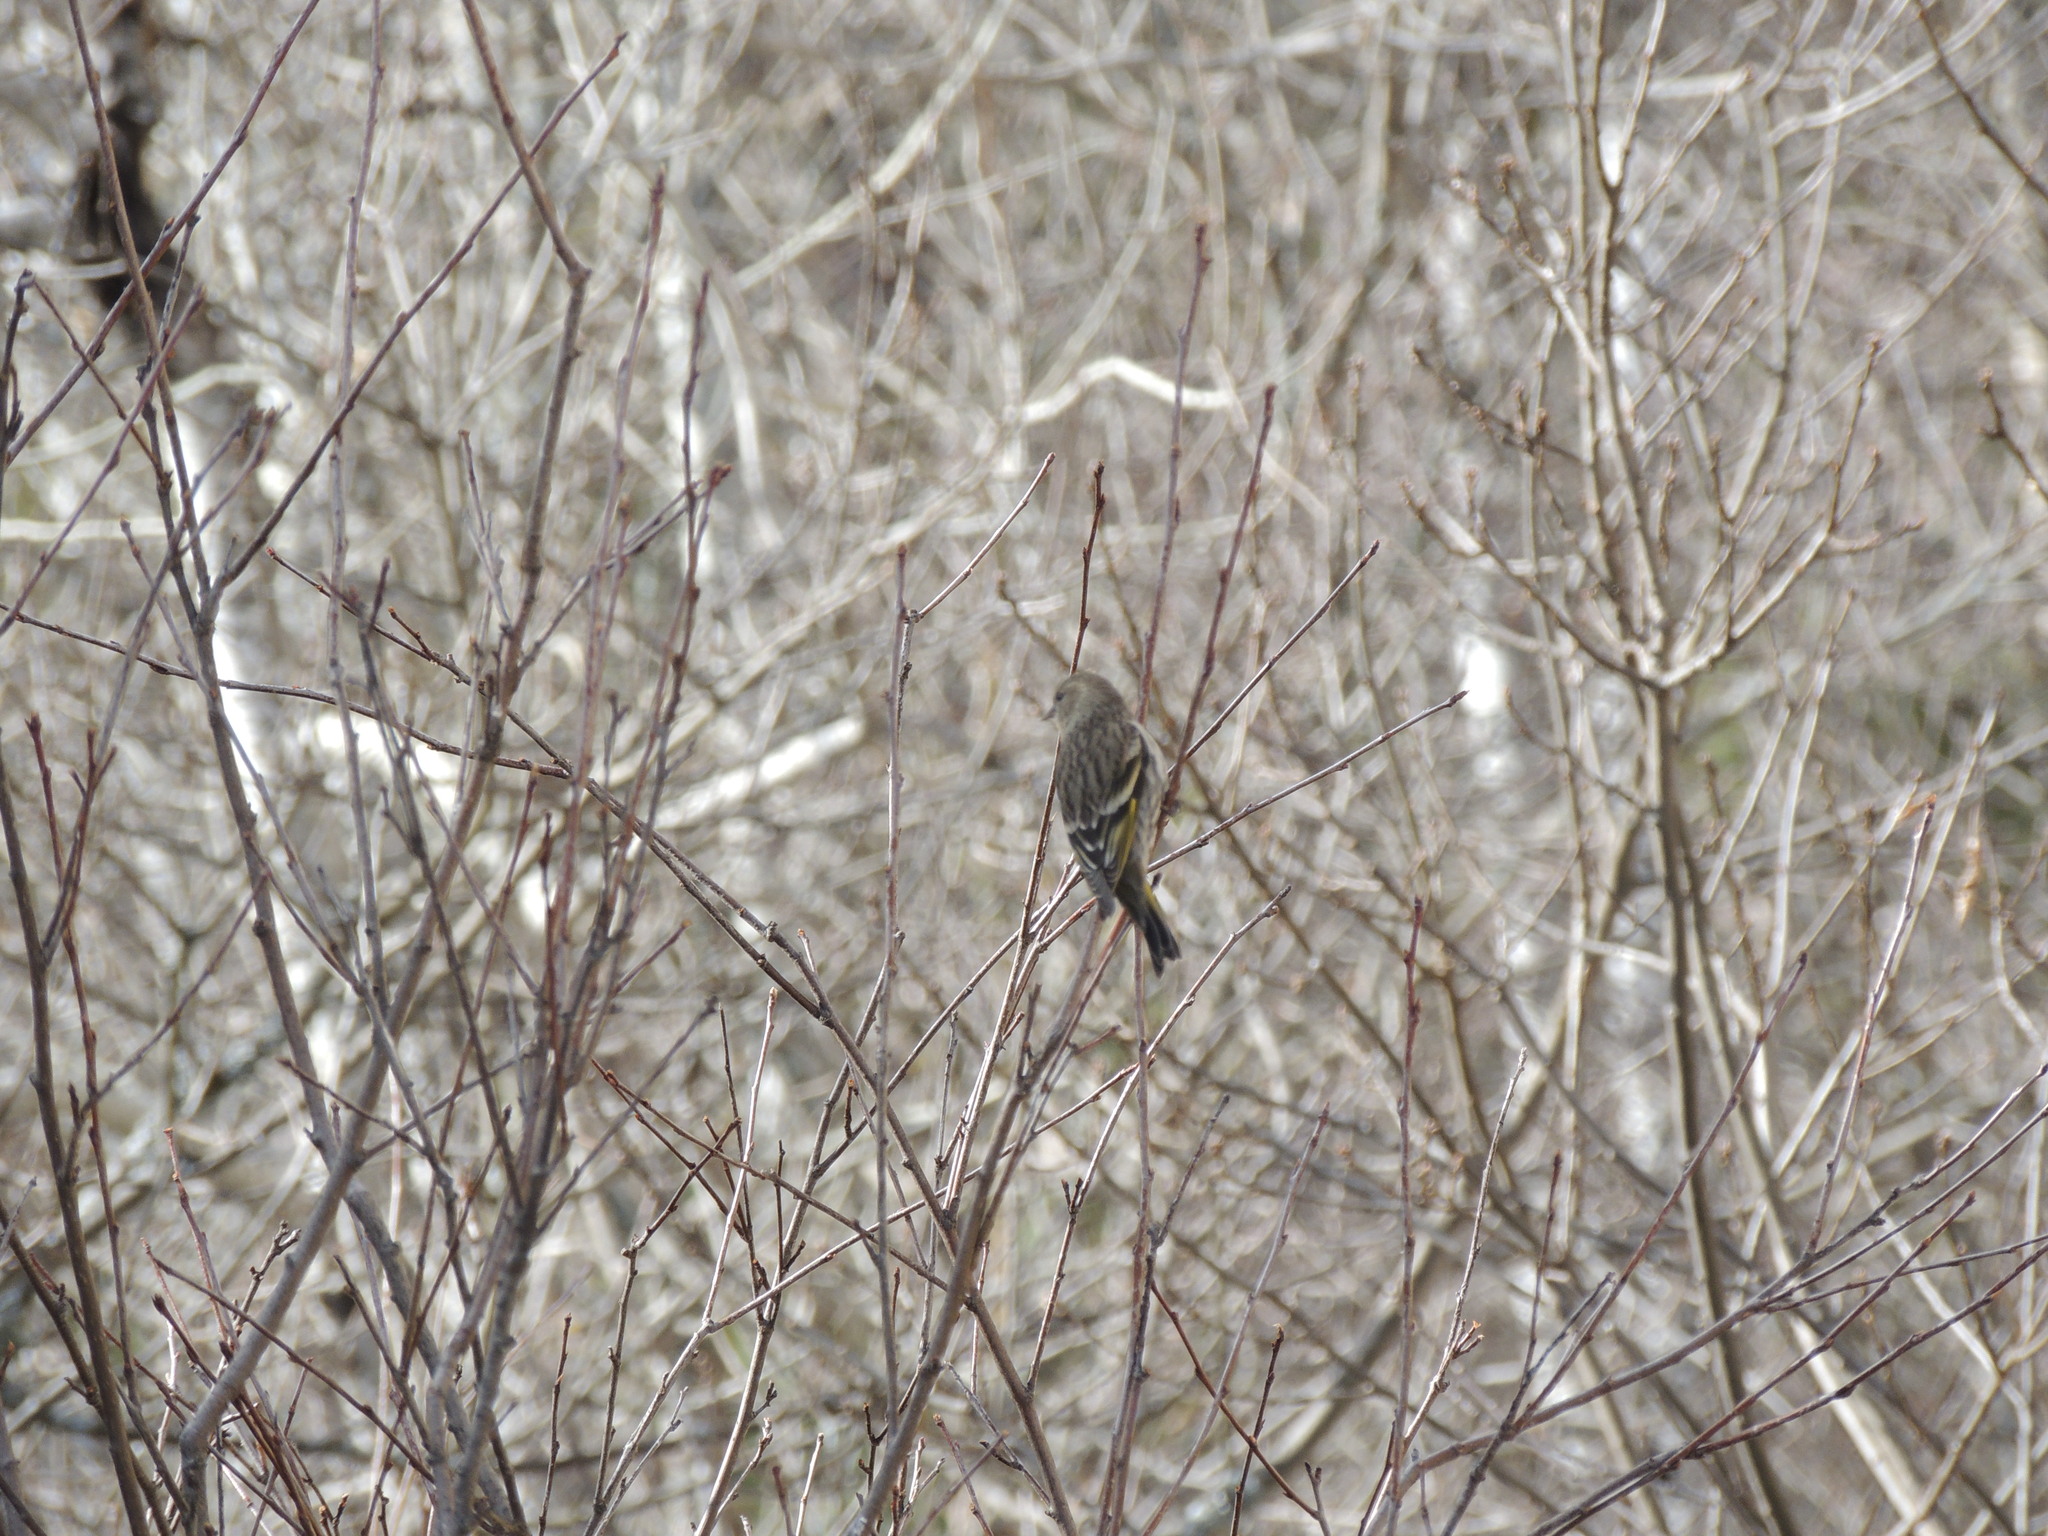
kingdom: Animalia
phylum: Chordata
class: Aves
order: Passeriformes
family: Fringillidae
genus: Spinus
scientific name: Spinus pinus
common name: Pine siskin
